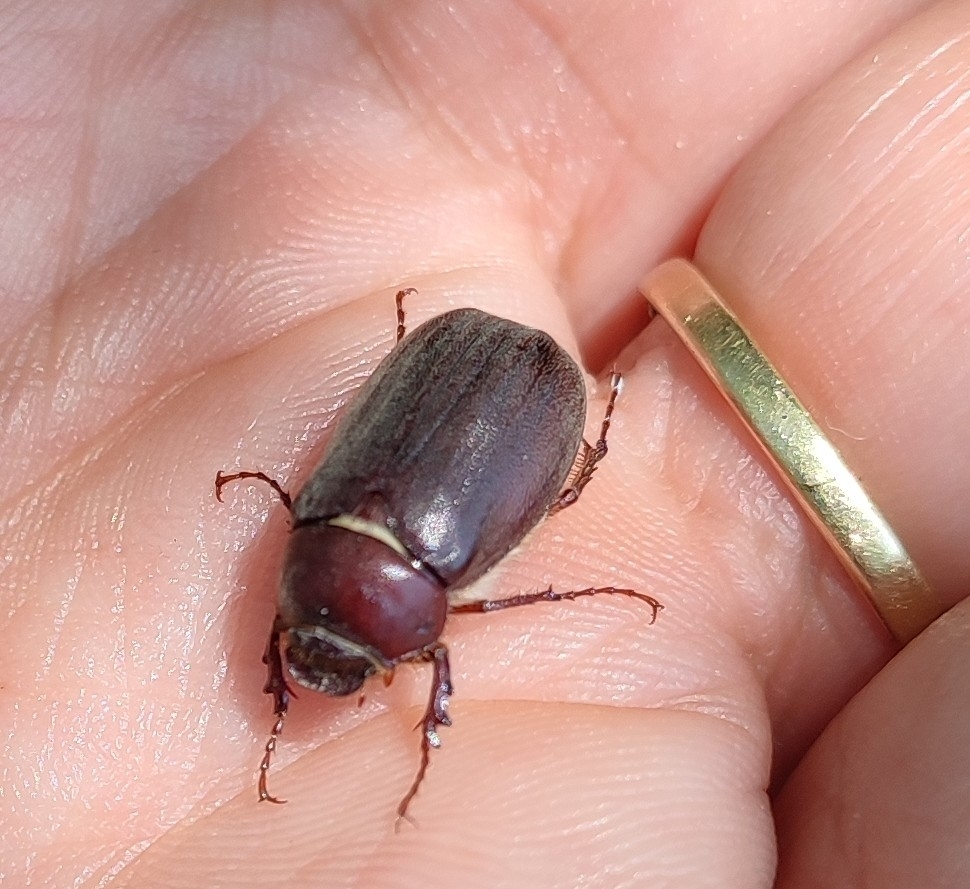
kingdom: Animalia
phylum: Arthropoda
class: Insecta
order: Coleoptera
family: Scarabaeidae
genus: Aplidia
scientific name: Aplidia transversa
